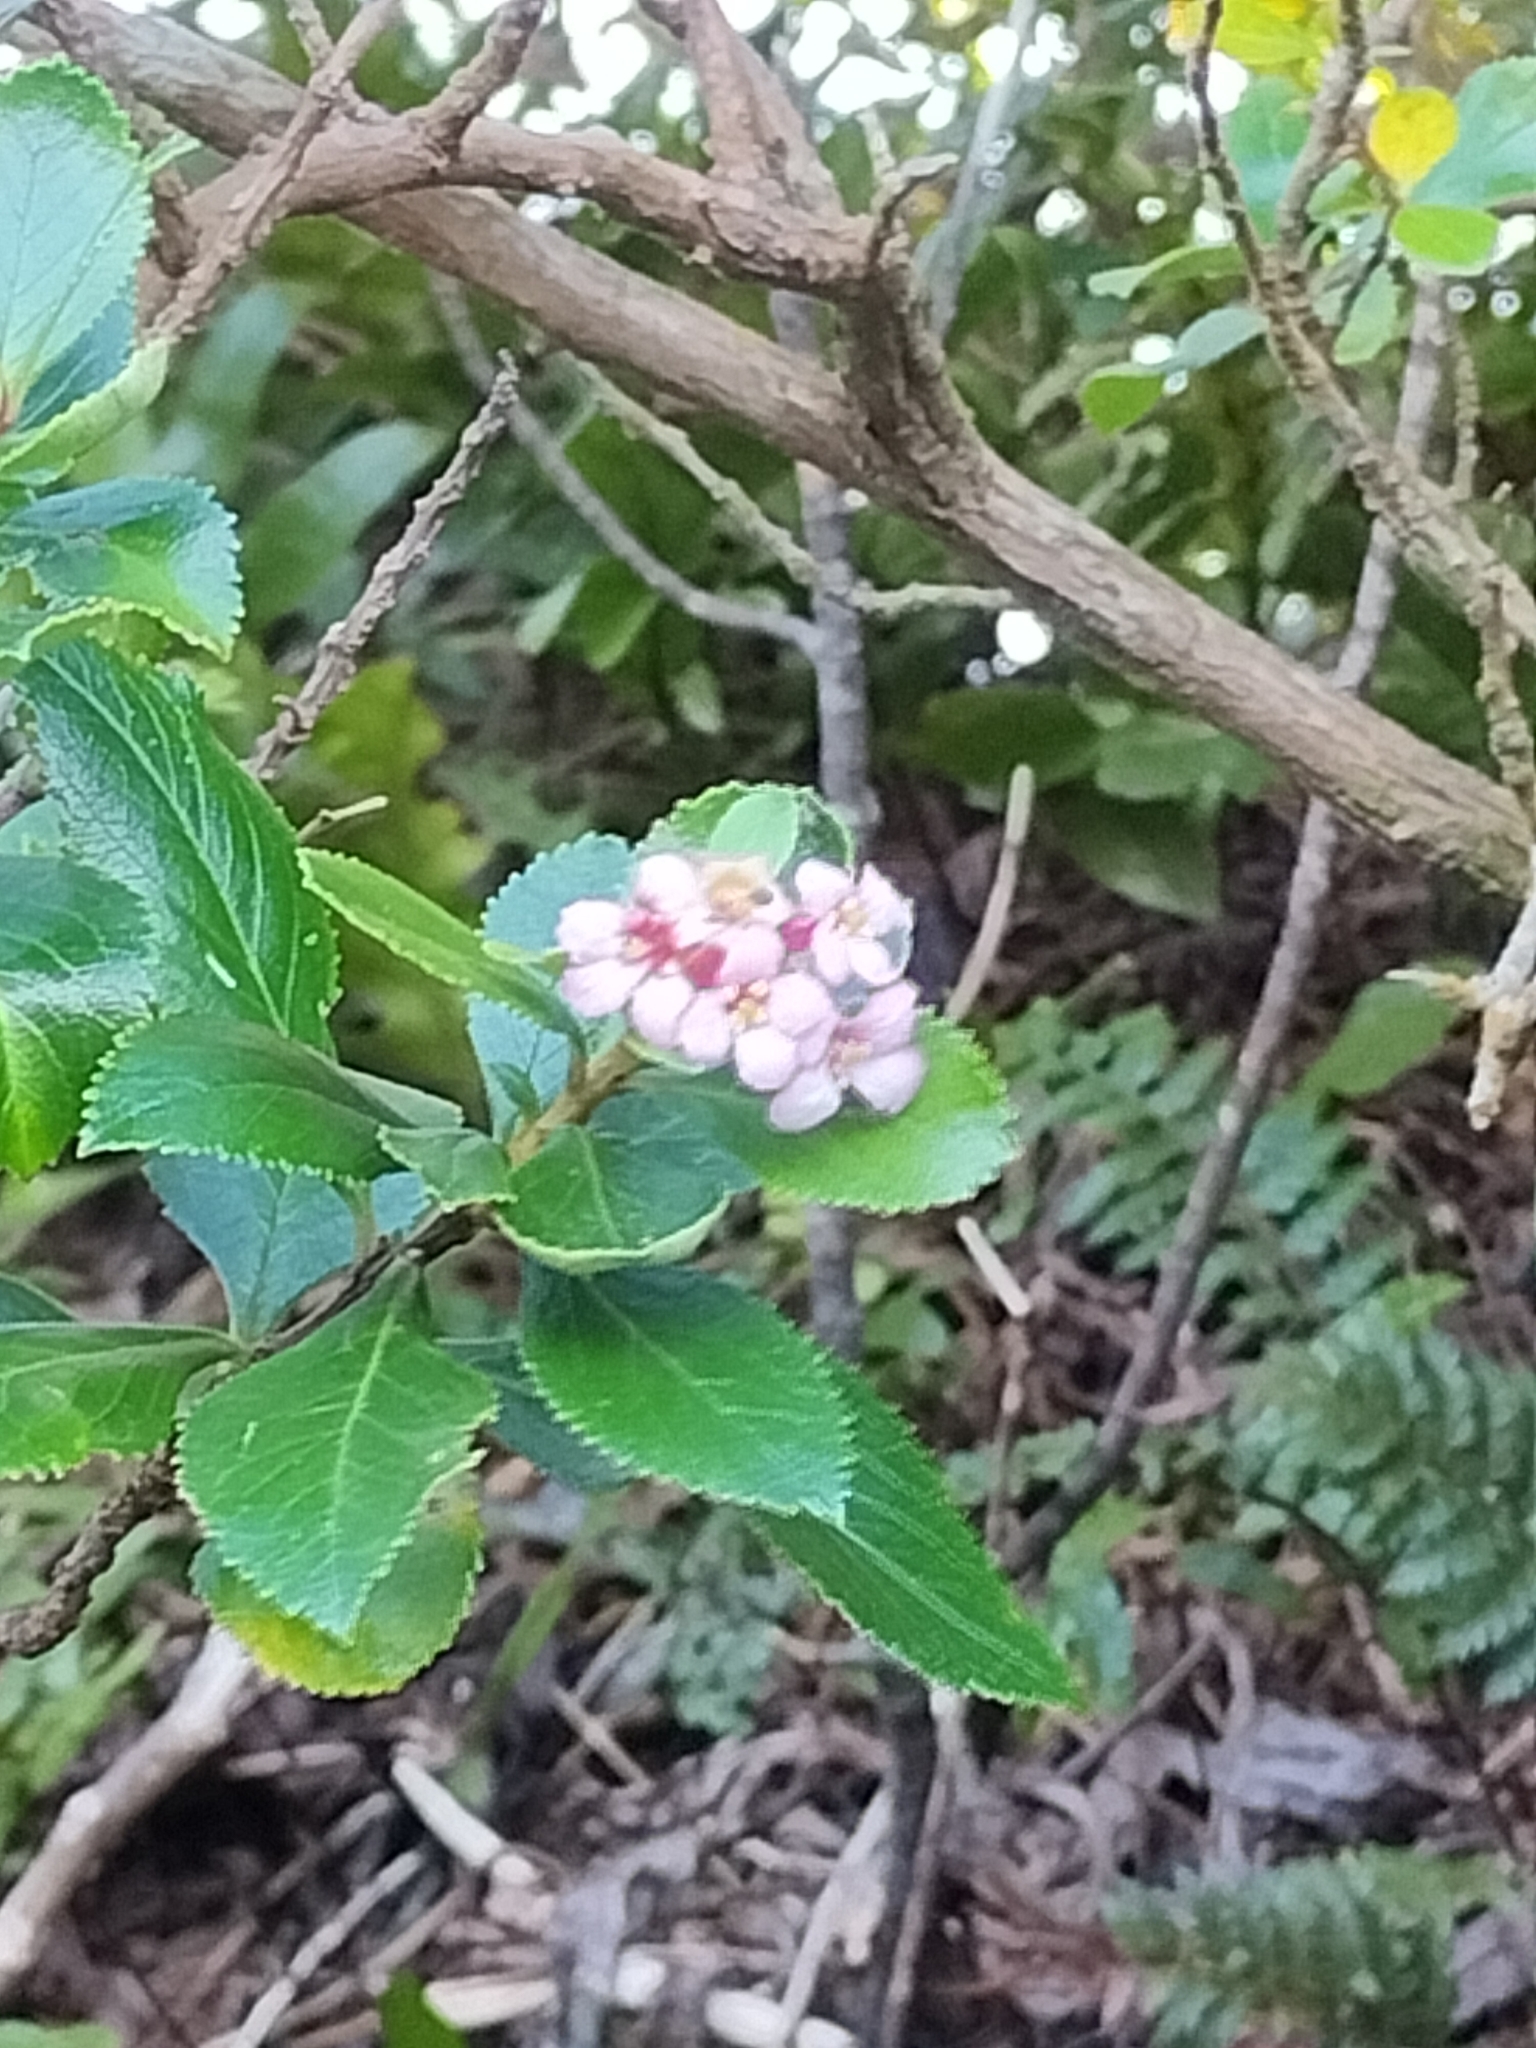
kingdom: Plantae
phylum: Tracheophyta
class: Magnoliopsida
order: Escalloniales
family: Escalloniaceae
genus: Escallonia
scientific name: Escallonia rubra
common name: Redclaws
